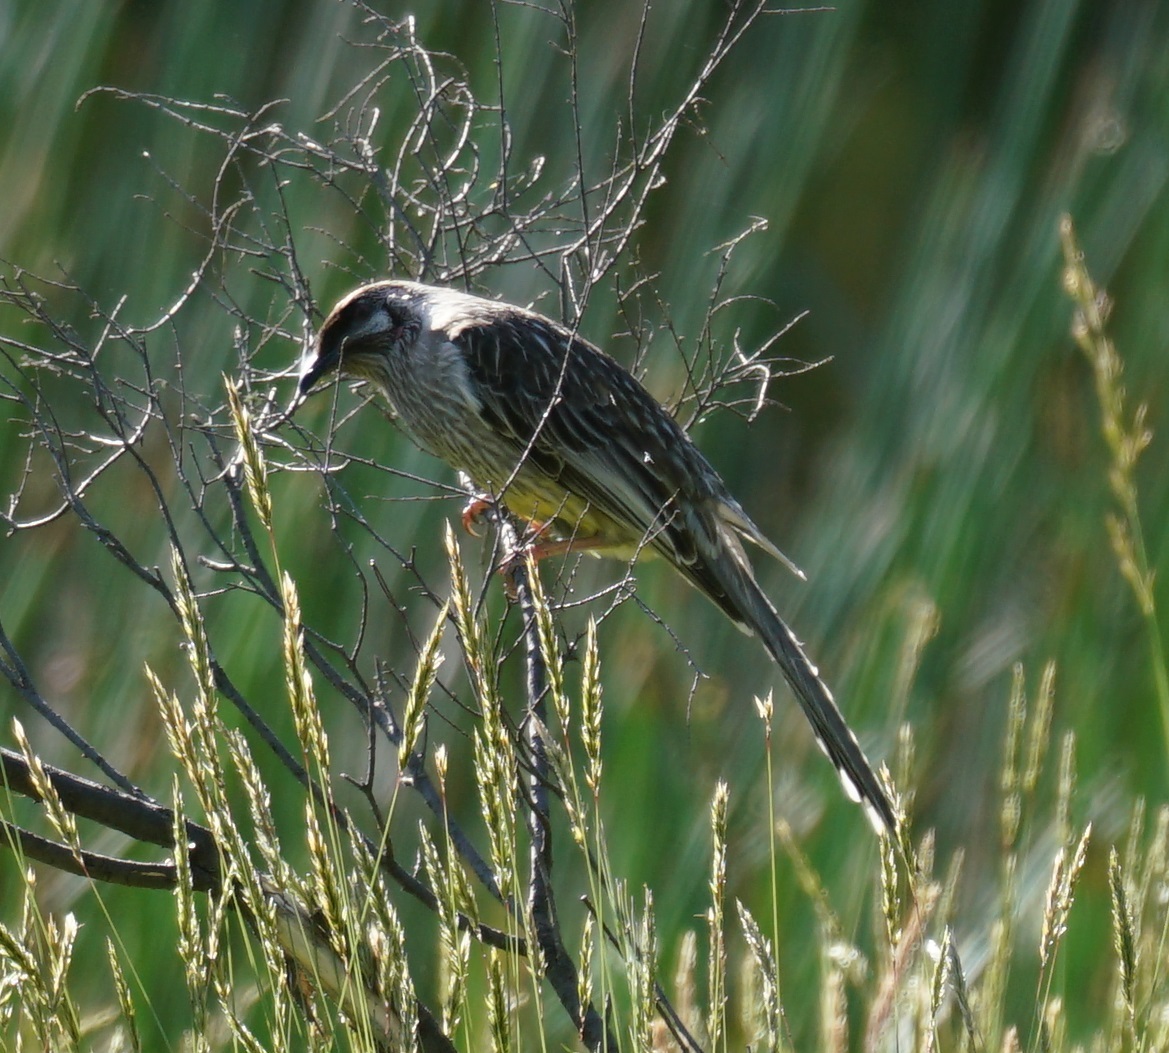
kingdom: Animalia
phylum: Chordata
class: Aves
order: Passeriformes
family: Meliphagidae
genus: Anthochaera
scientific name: Anthochaera carunculata
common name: Red wattlebird
